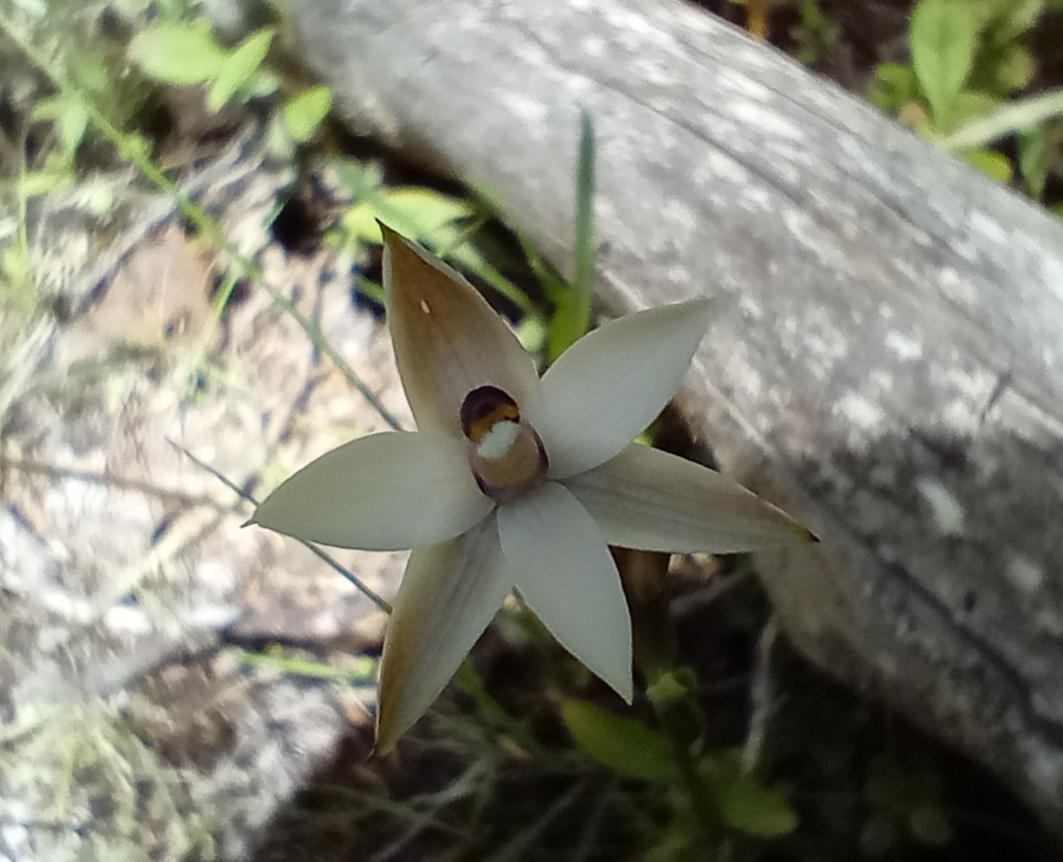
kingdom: Plantae
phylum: Tracheophyta
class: Liliopsida
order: Asparagales
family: Orchidaceae
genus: Thelymitra
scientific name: Thelymitra longifolia
